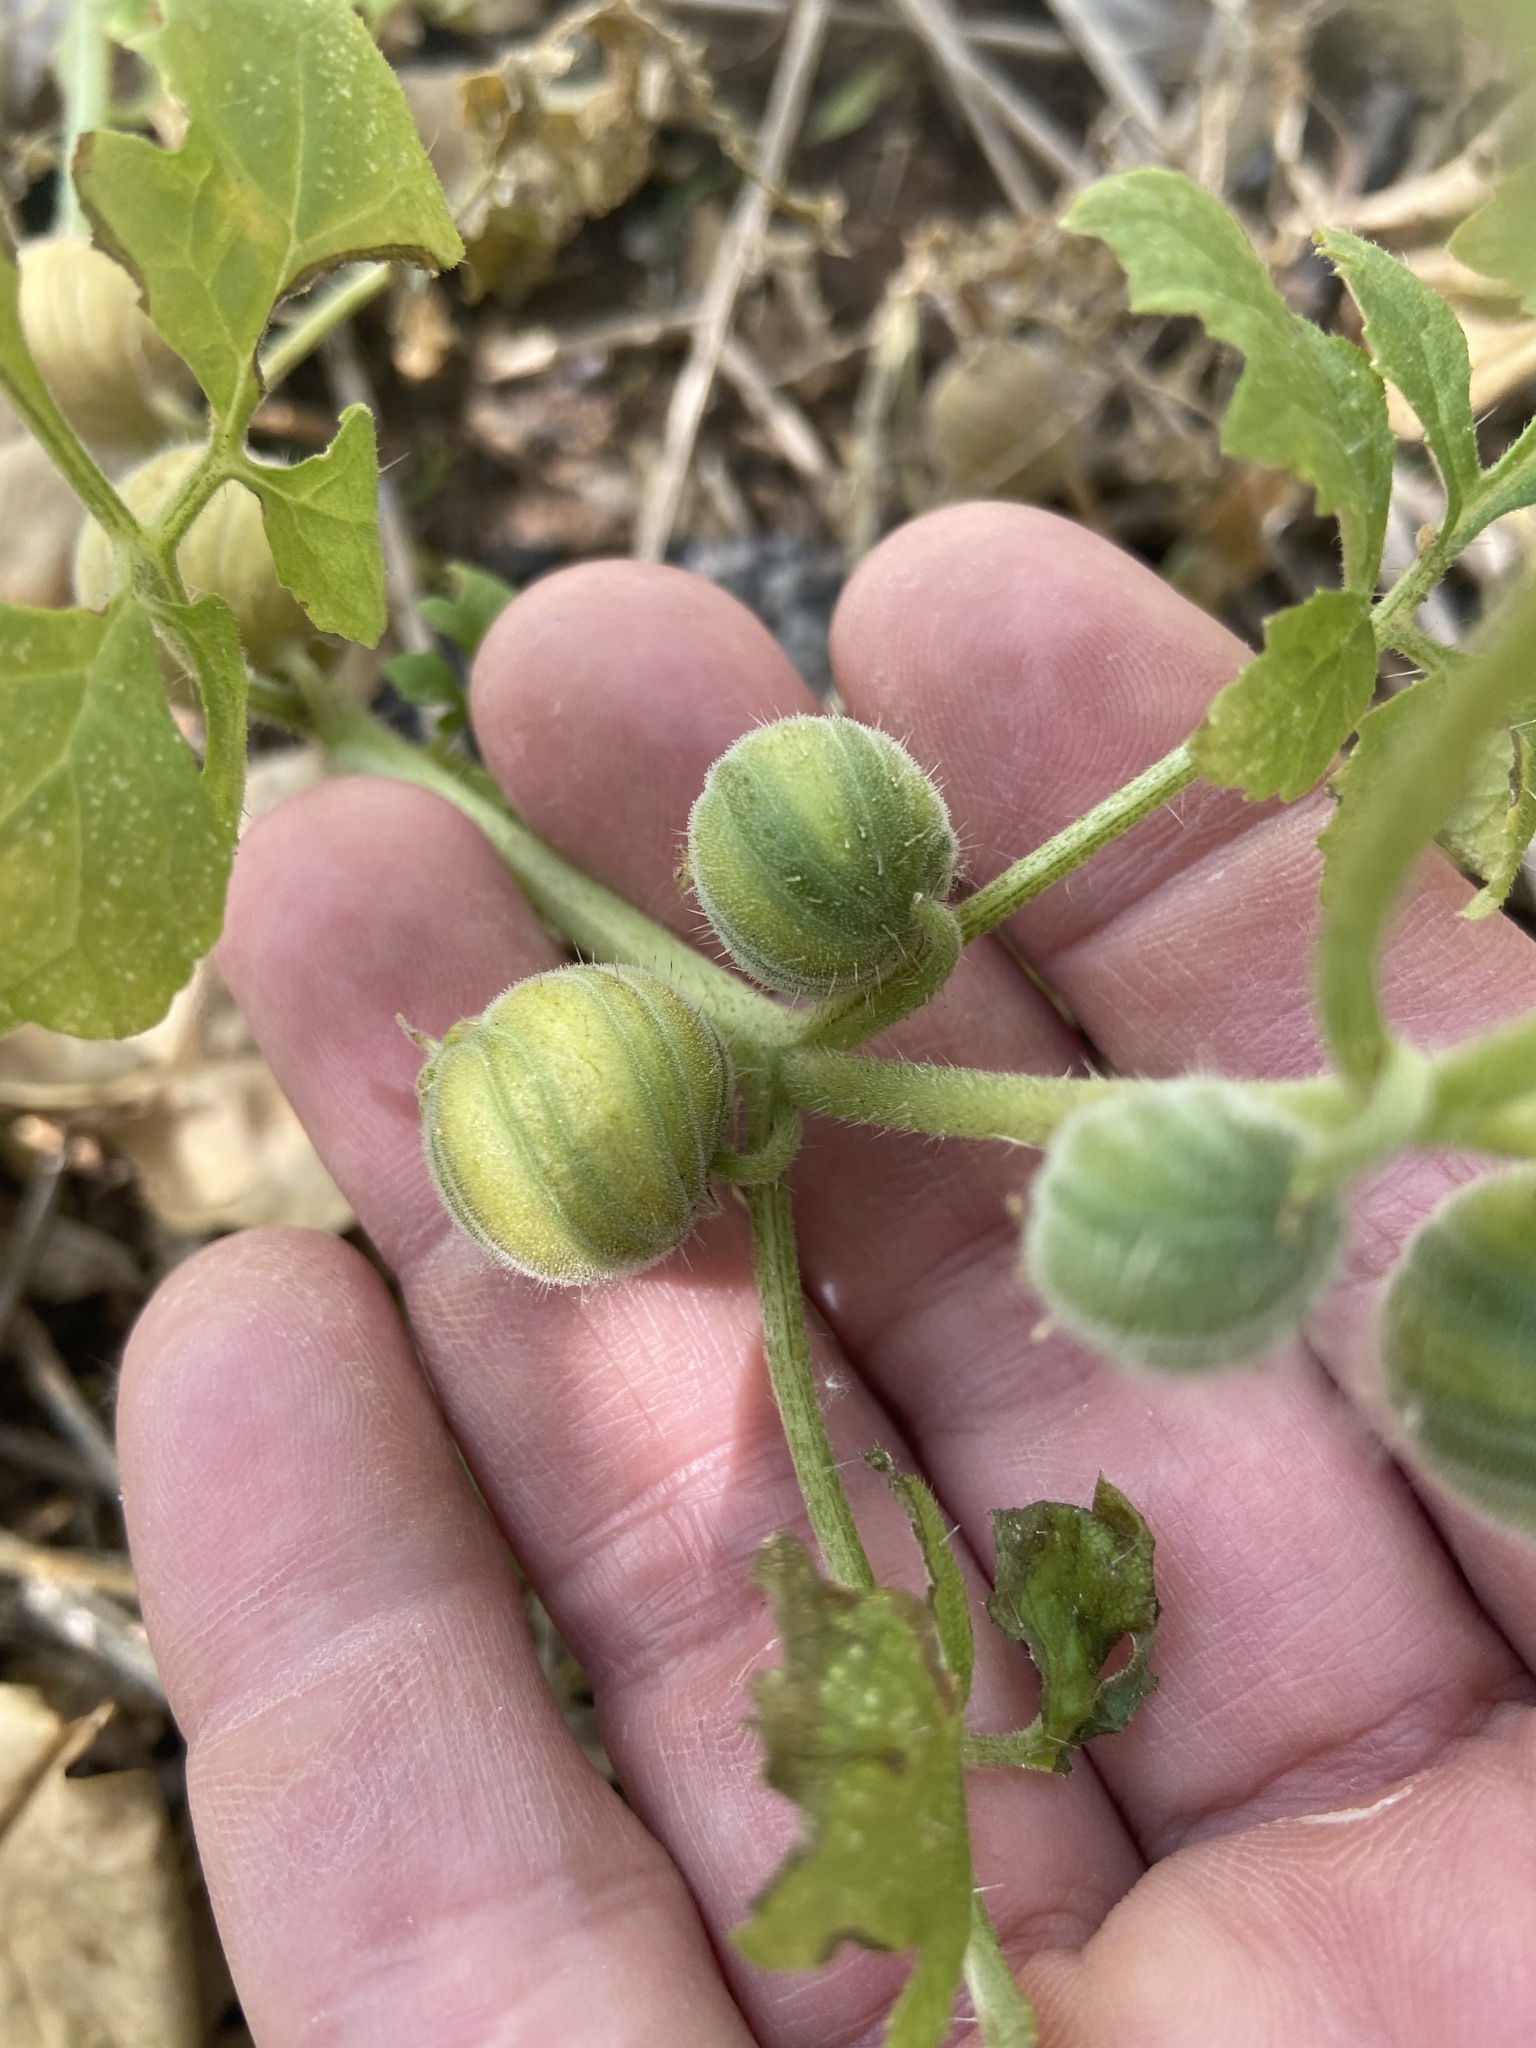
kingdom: Plantae
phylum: Tracheophyta
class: Magnoliopsida
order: Cornales
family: Loasaceae
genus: Blumenbachia
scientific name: Blumenbachia latifolia
